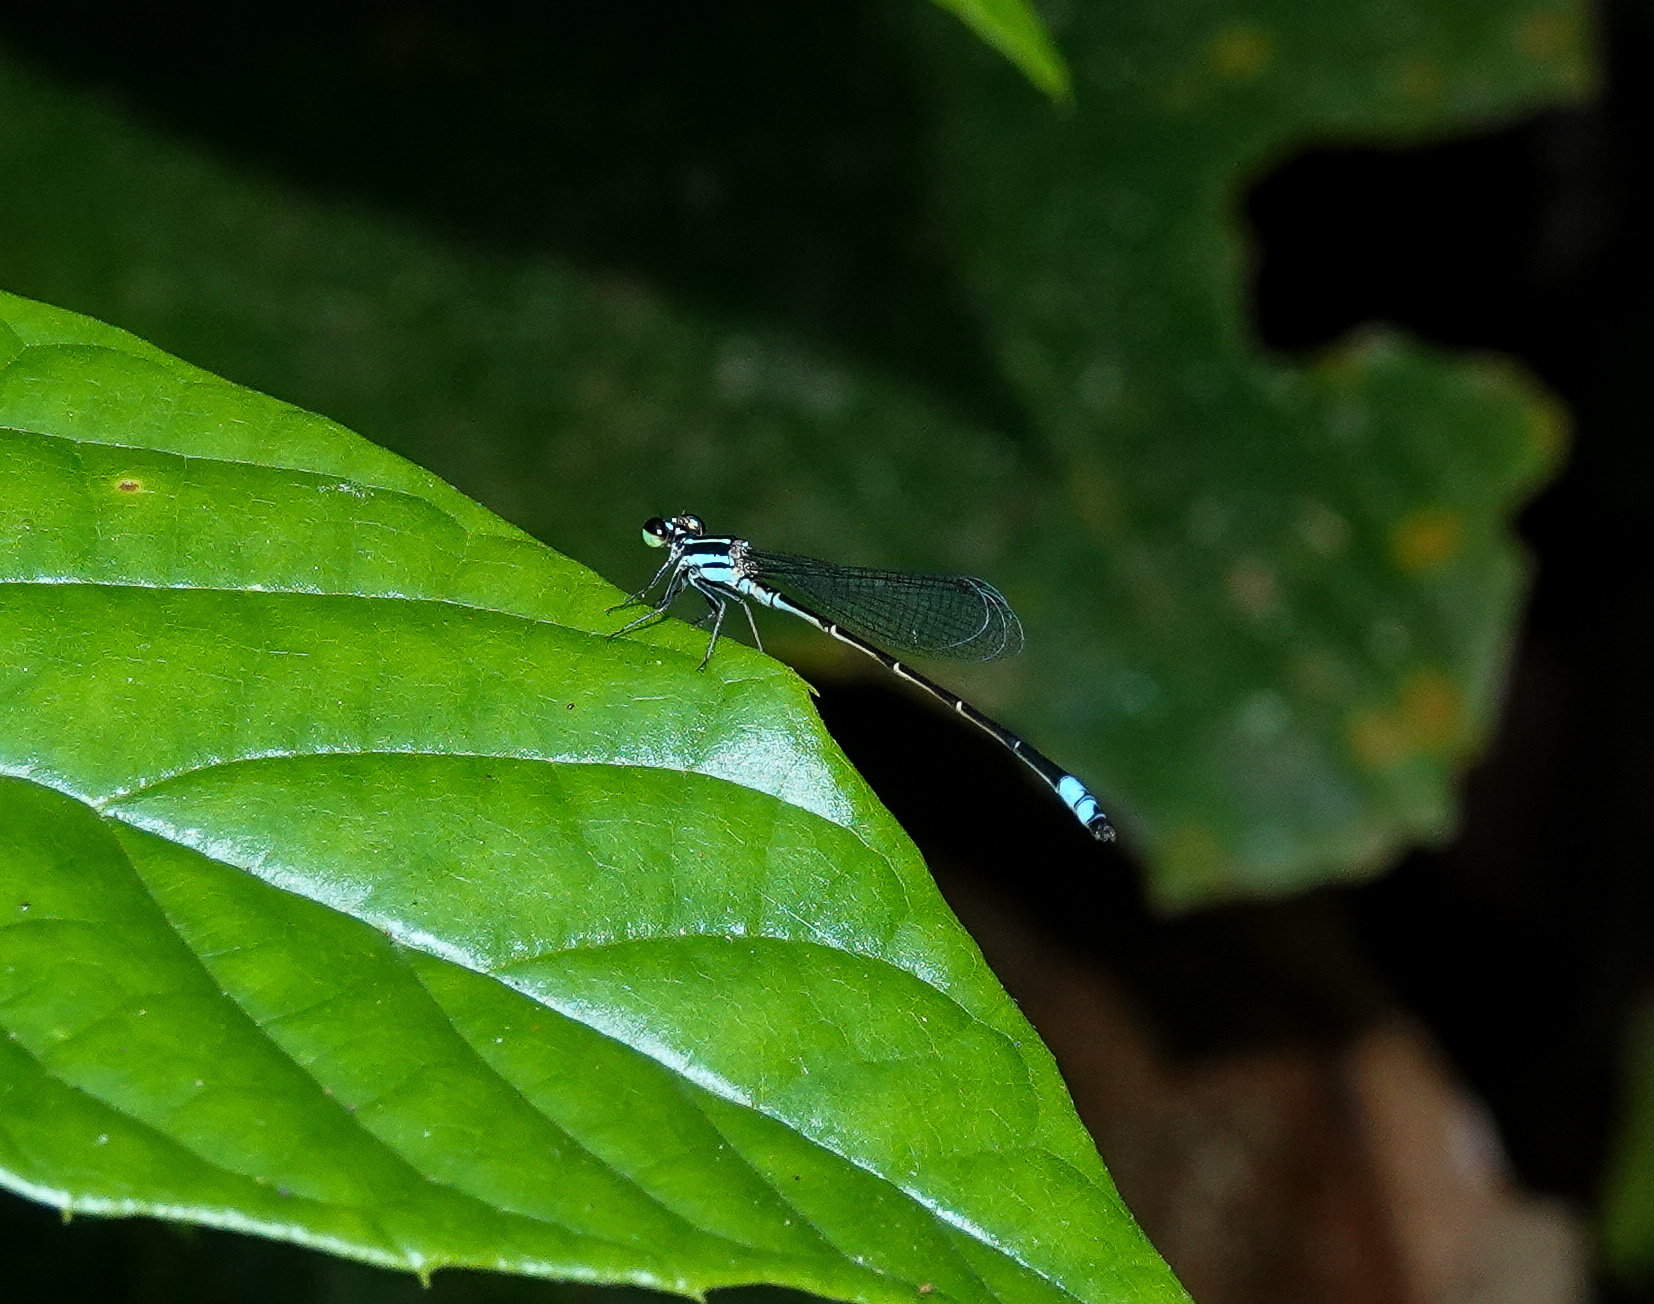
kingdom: Animalia
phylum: Arthropoda
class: Insecta
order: Odonata
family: Coenagrionidae
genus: Argiocnemis
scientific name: Argiocnemis rubescens
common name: Red-tipped shadefly
